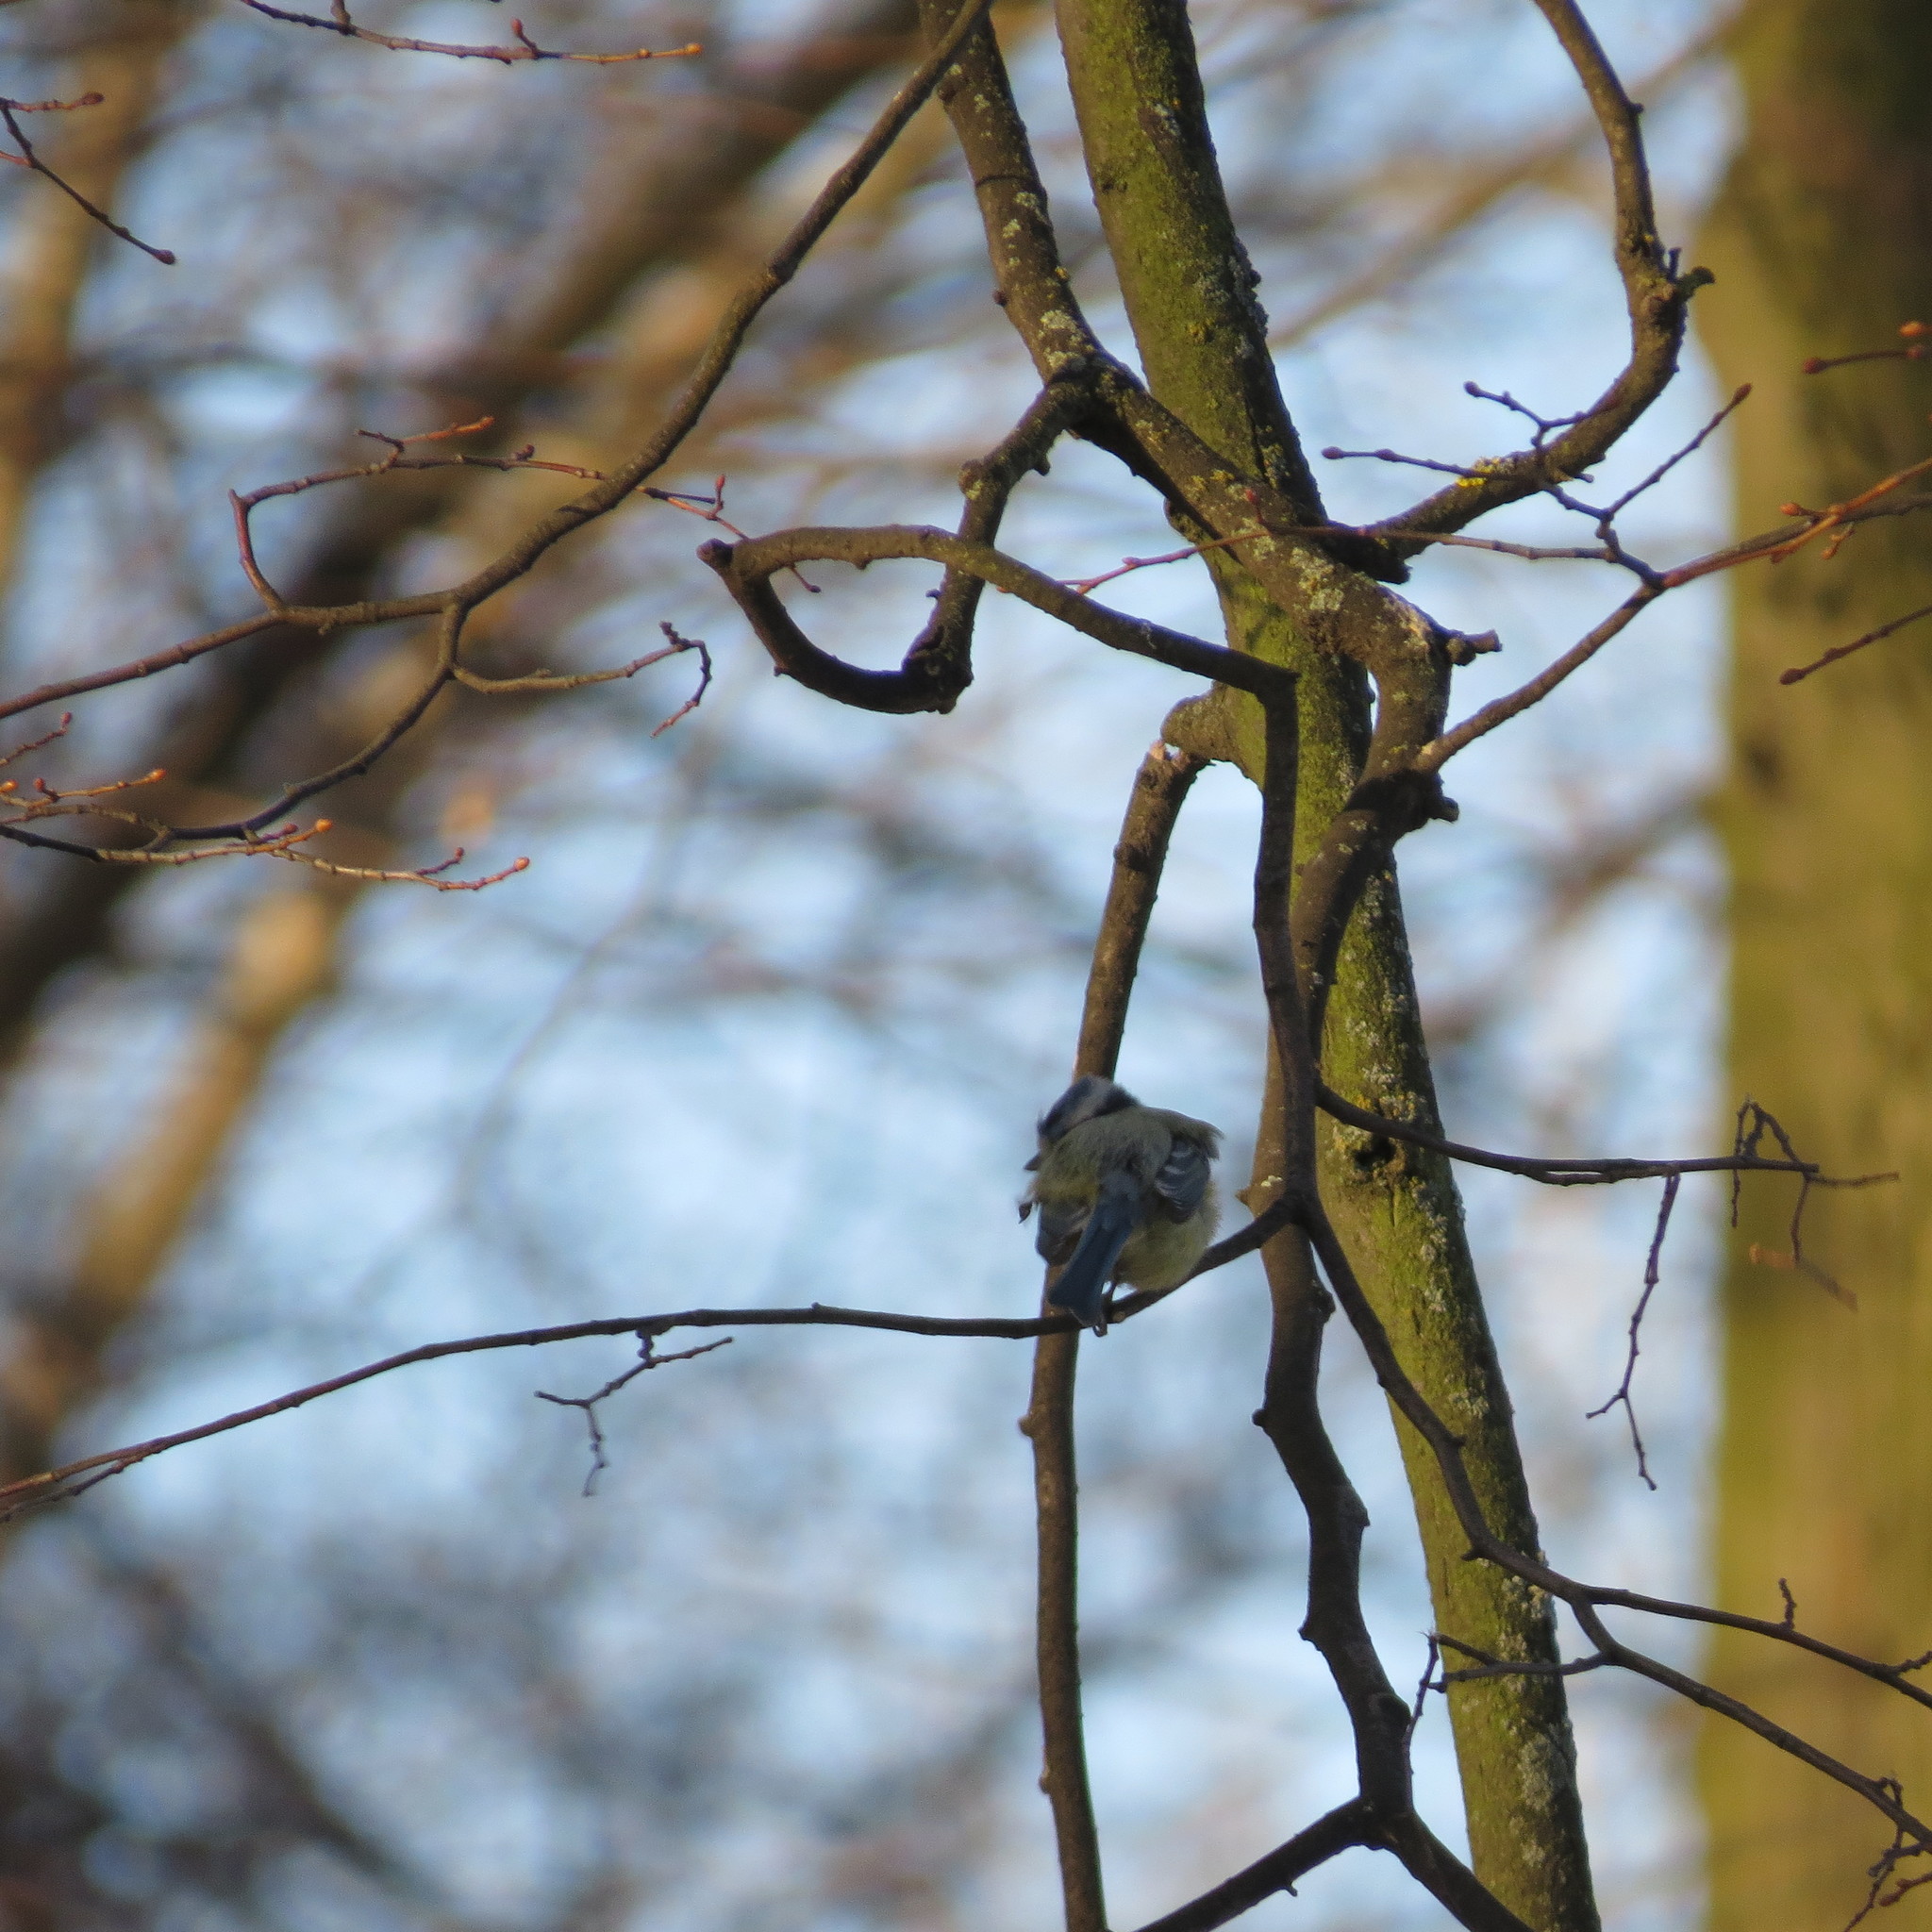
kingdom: Animalia
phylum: Chordata
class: Aves
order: Passeriformes
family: Paridae
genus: Cyanistes
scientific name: Cyanistes caeruleus
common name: Eurasian blue tit
